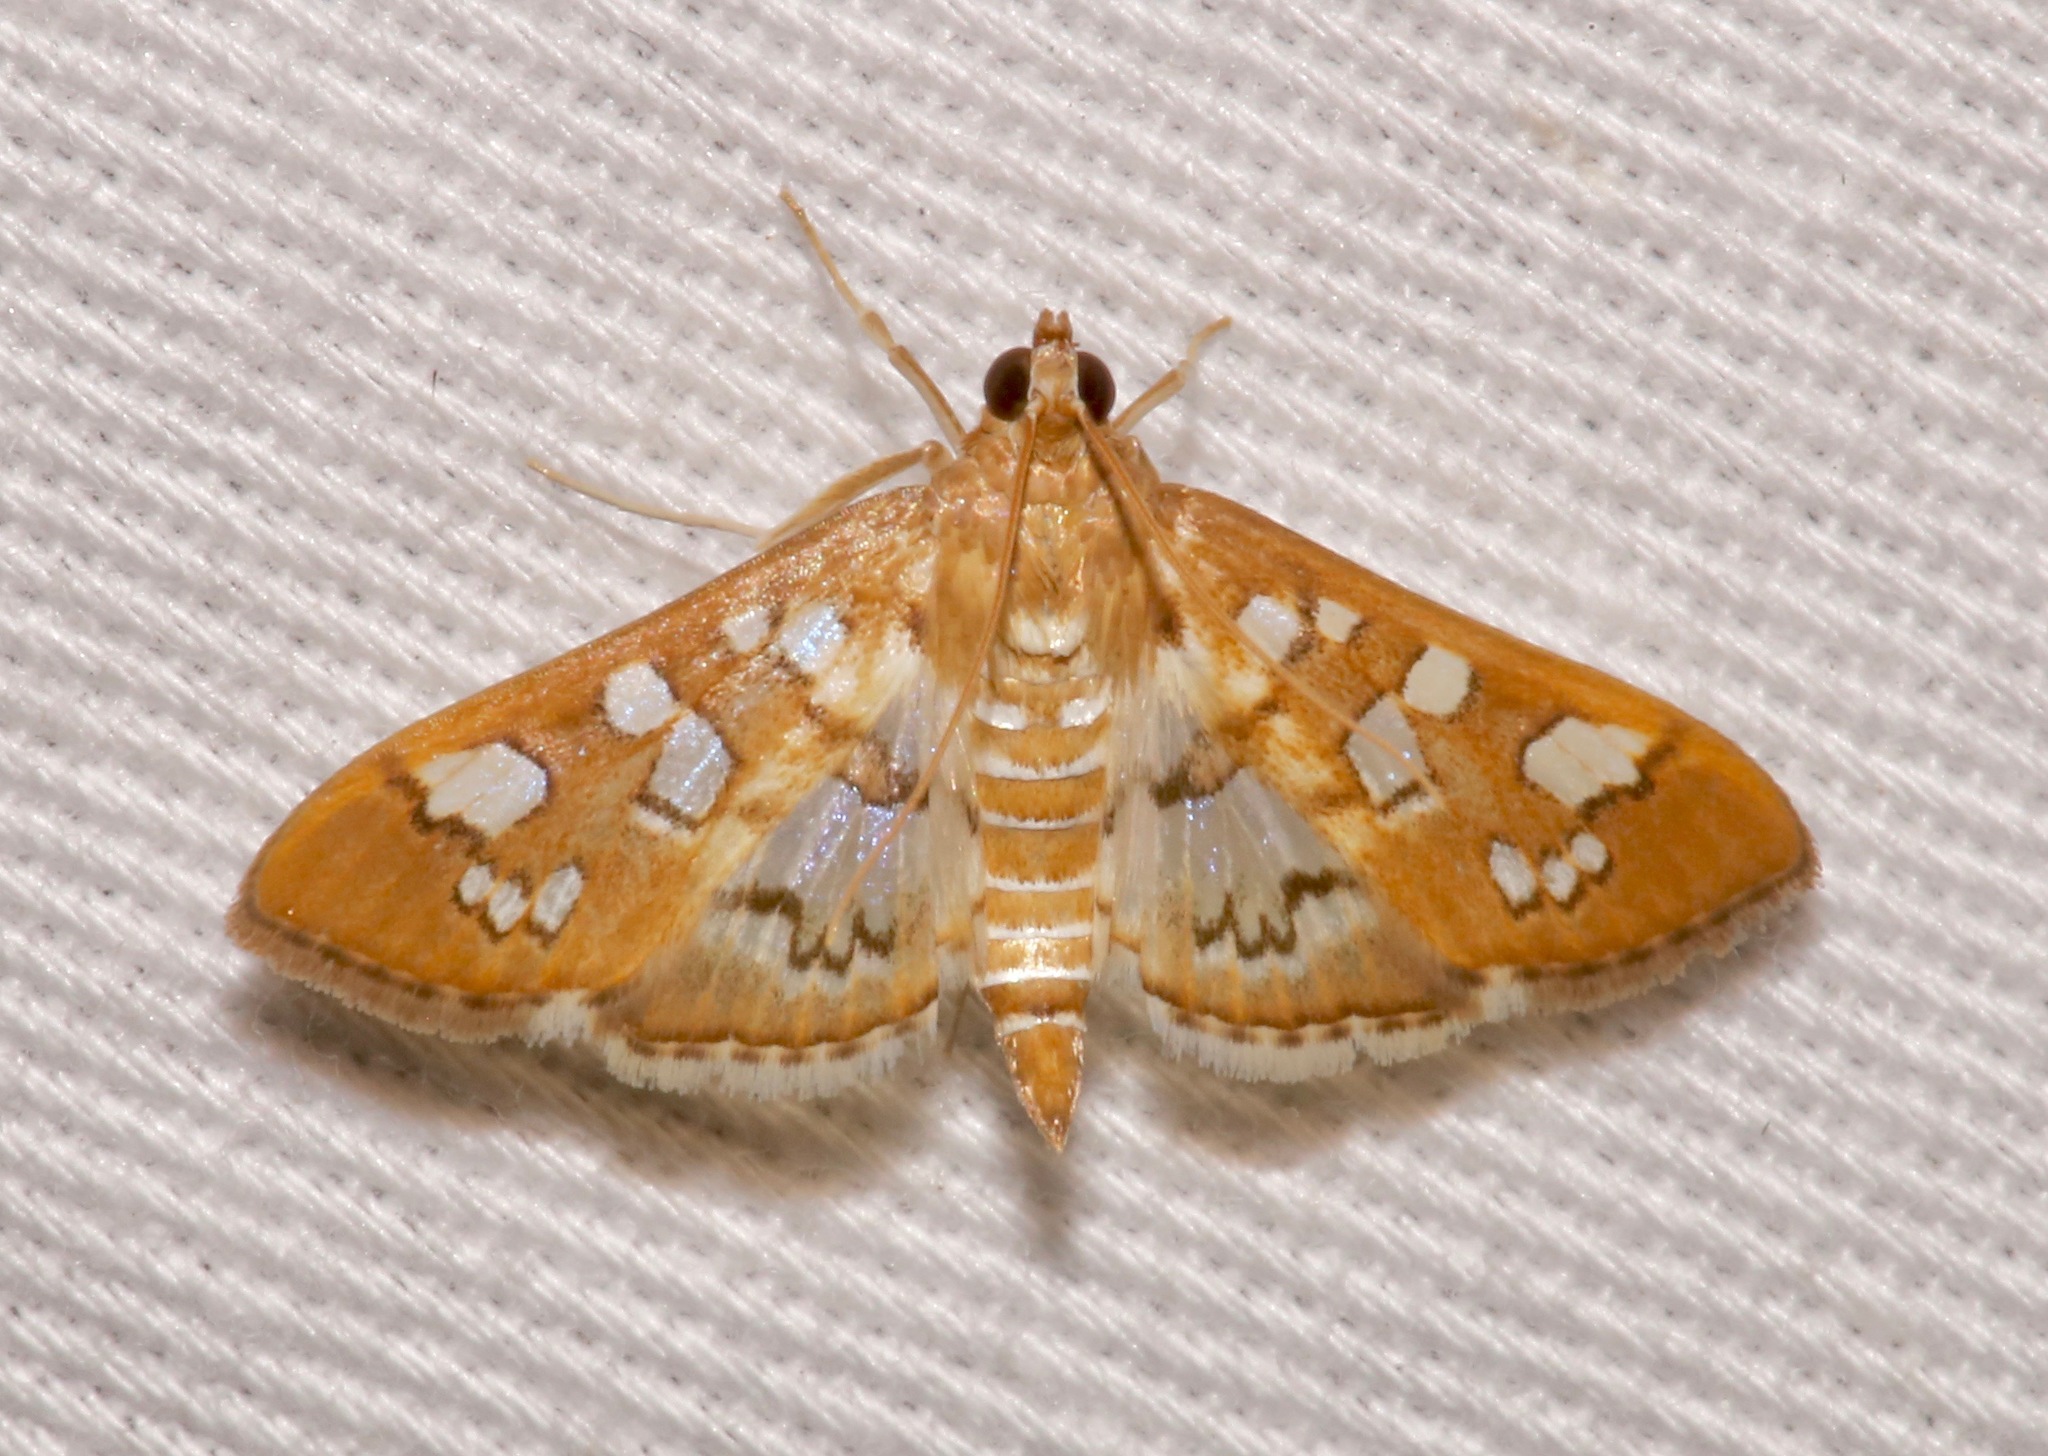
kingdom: Animalia
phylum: Arthropoda
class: Insecta
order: Lepidoptera
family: Crambidae
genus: Samea
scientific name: Samea baccatalis
